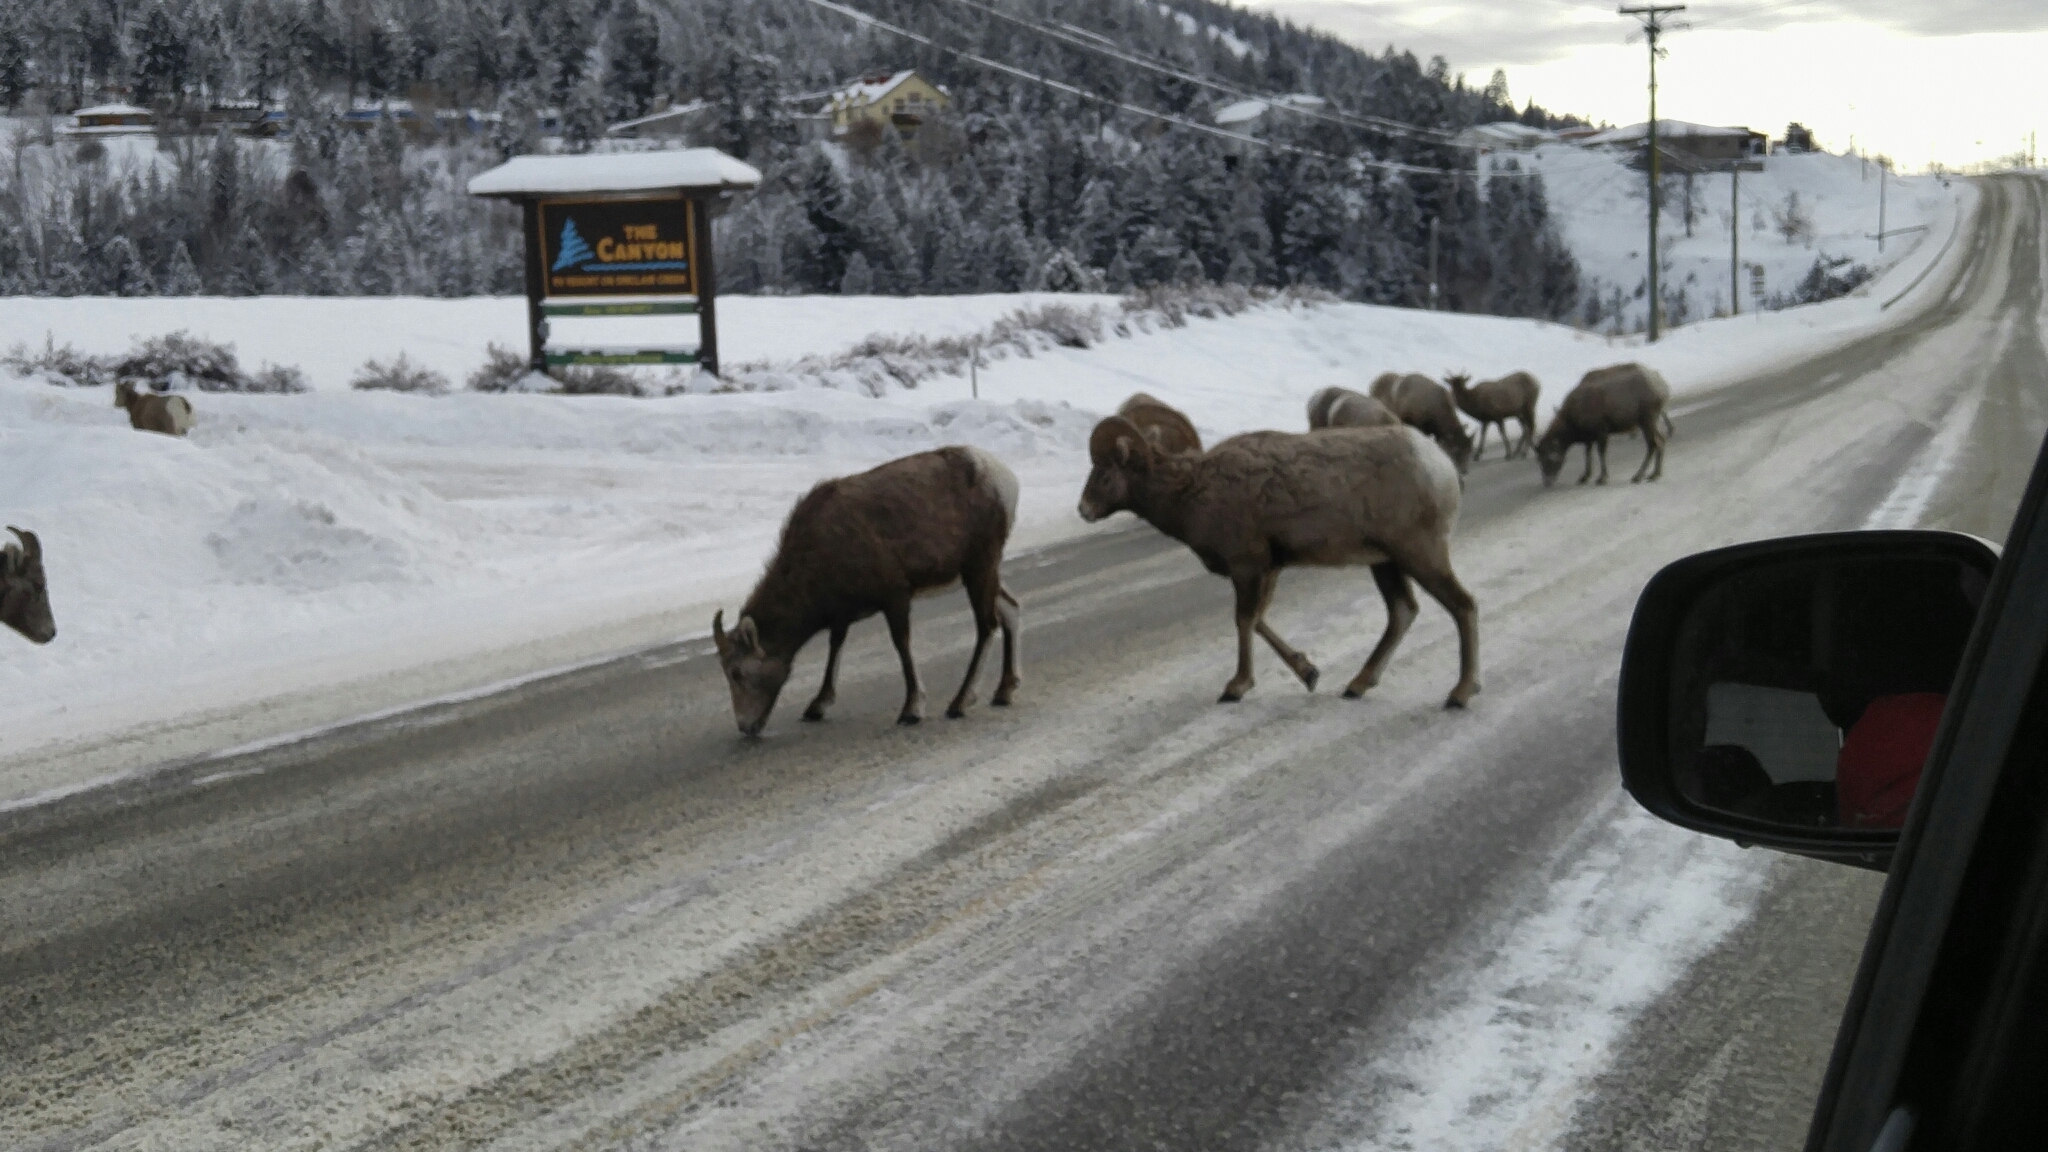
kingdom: Animalia
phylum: Chordata
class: Mammalia
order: Artiodactyla
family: Bovidae
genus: Ovis
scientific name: Ovis canadensis
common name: Bighorn sheep
